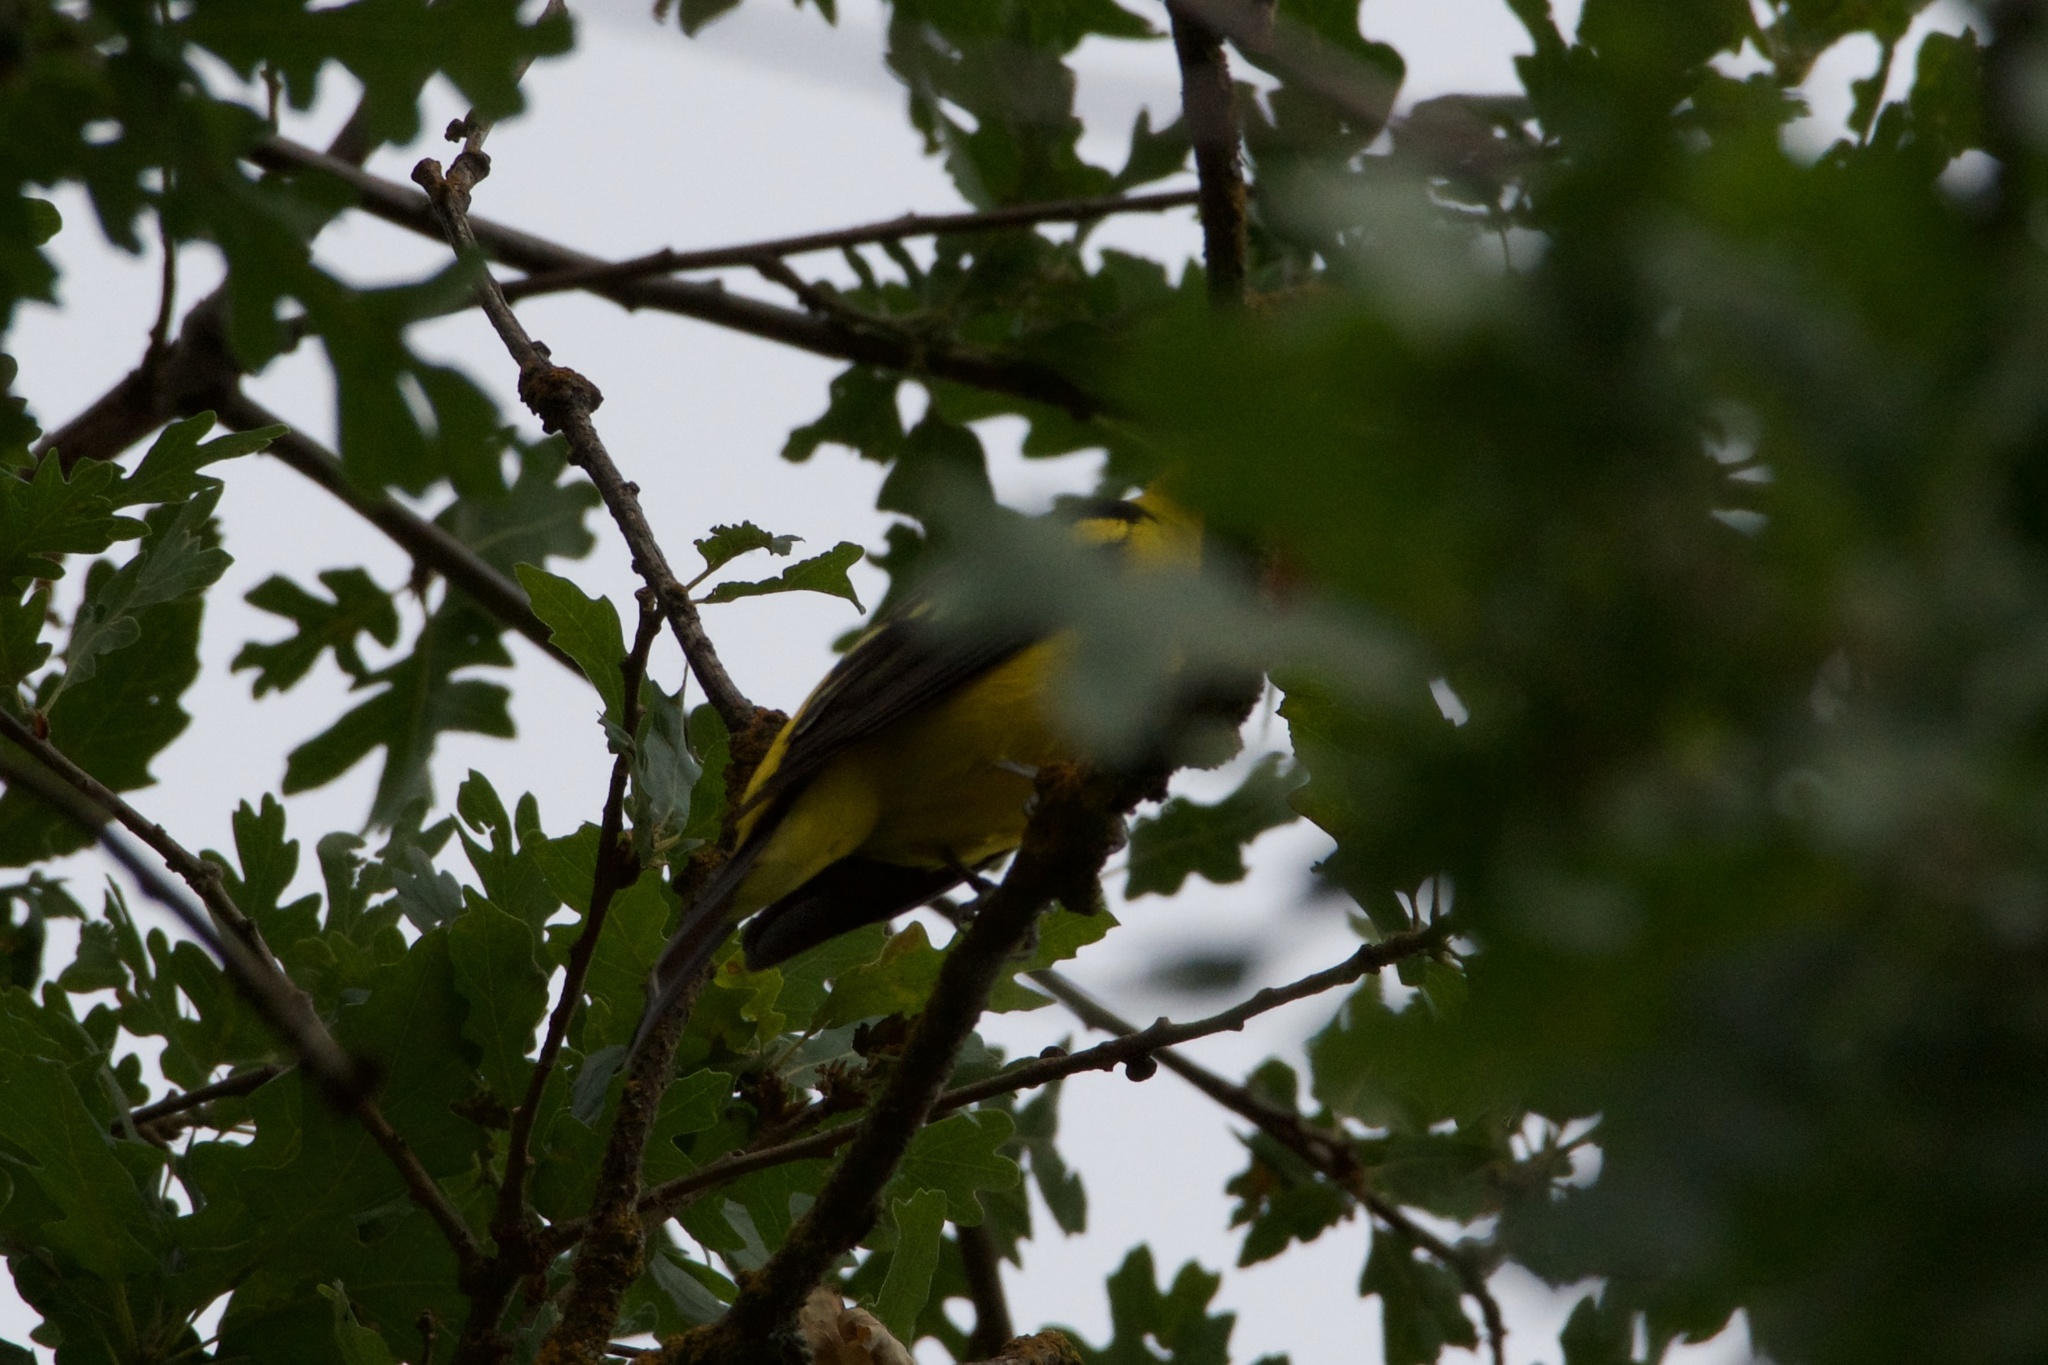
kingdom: Animalia
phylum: Chordata
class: Aves
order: Passeriformes
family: Cardinalidae
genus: Piranga
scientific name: Piranga ludoviciana
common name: Western tanager
